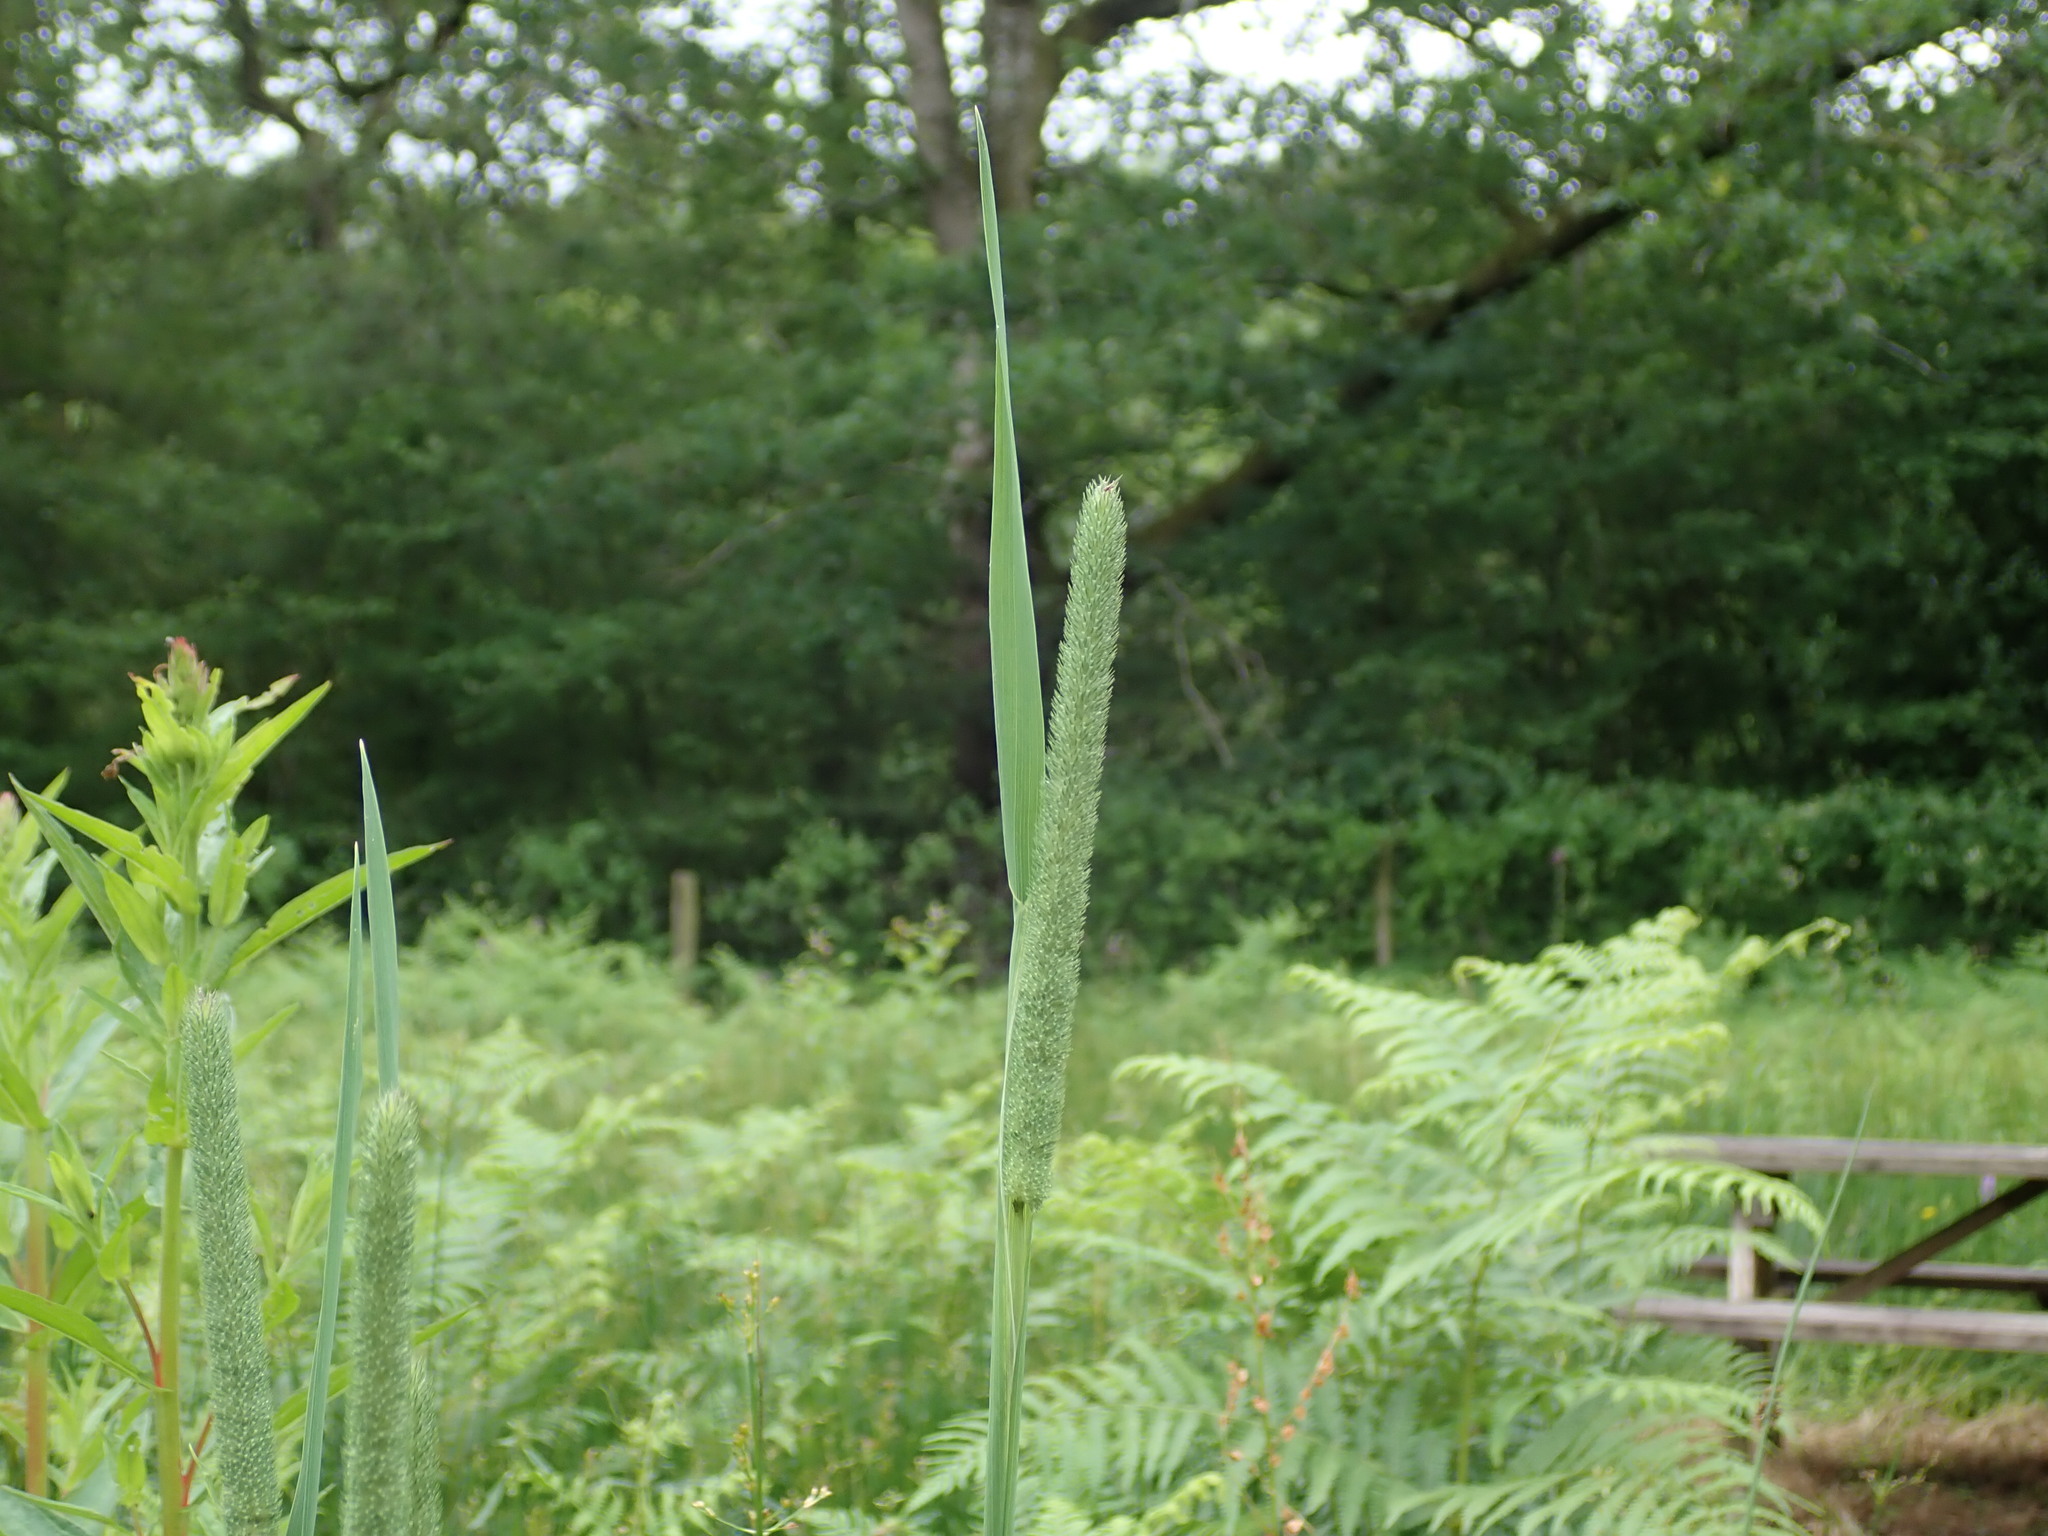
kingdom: Plantae
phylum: Tracheophyta
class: Liliopsida
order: Poales
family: Poaceae
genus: Phleum
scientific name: Phleum pratense
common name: Timothy grass
